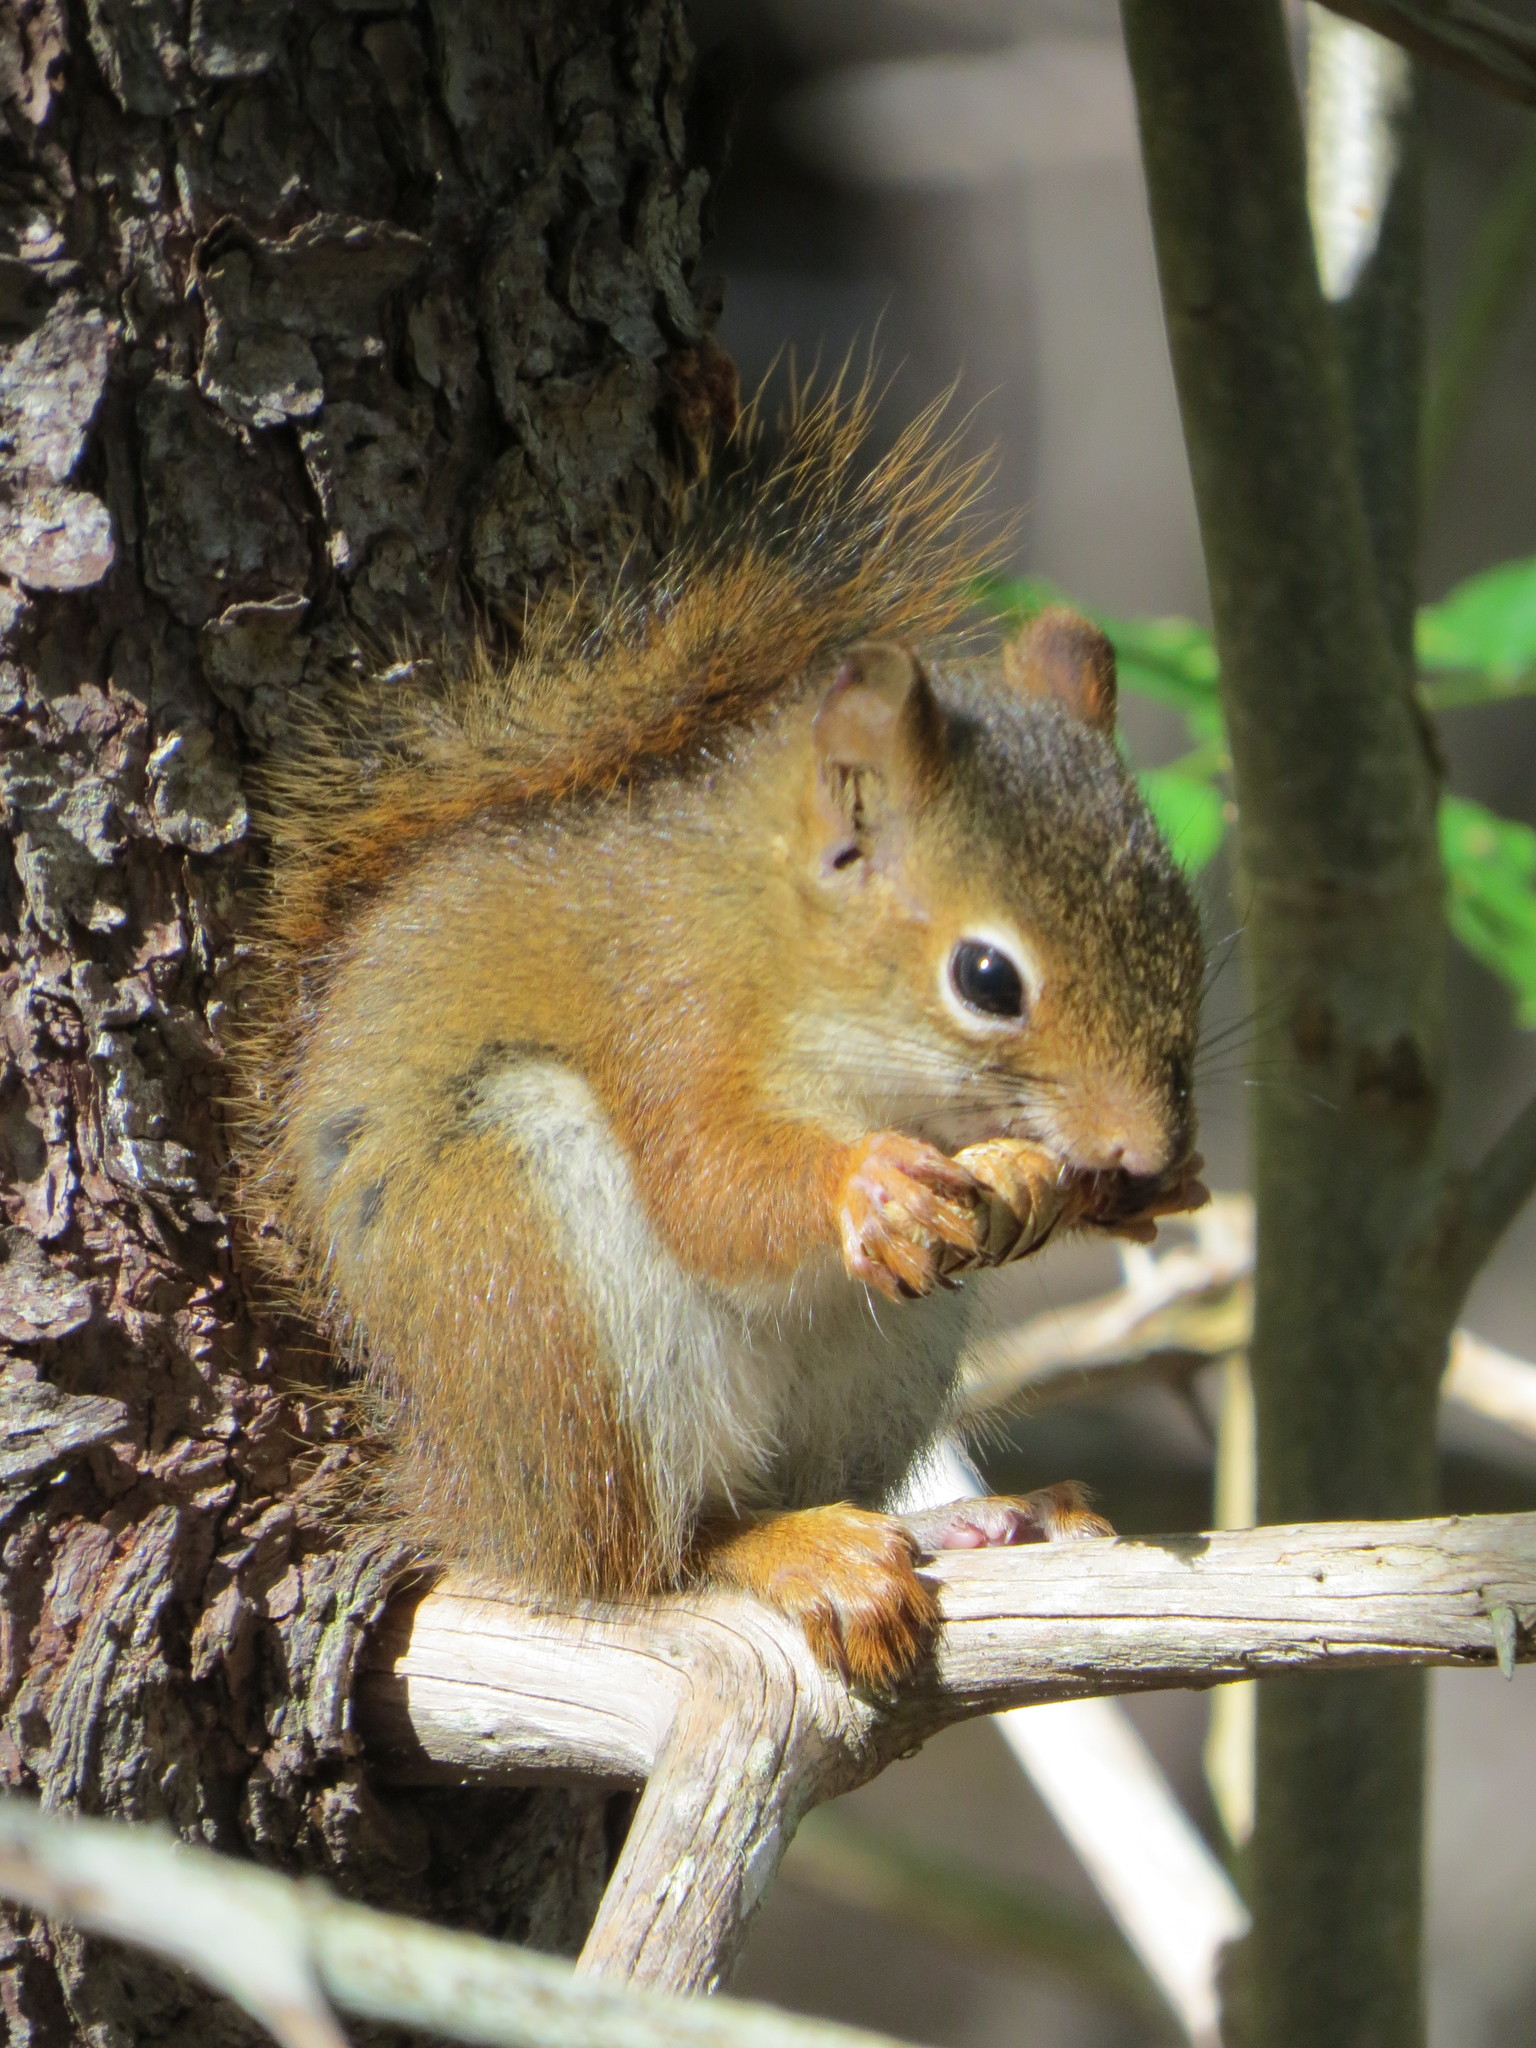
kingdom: Animalia
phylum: Chordata
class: Mammalia
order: Rodentia
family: Sciuridae
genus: Tamiasciurus
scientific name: Tamiasciurus hudsonicus
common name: Red squirrel
